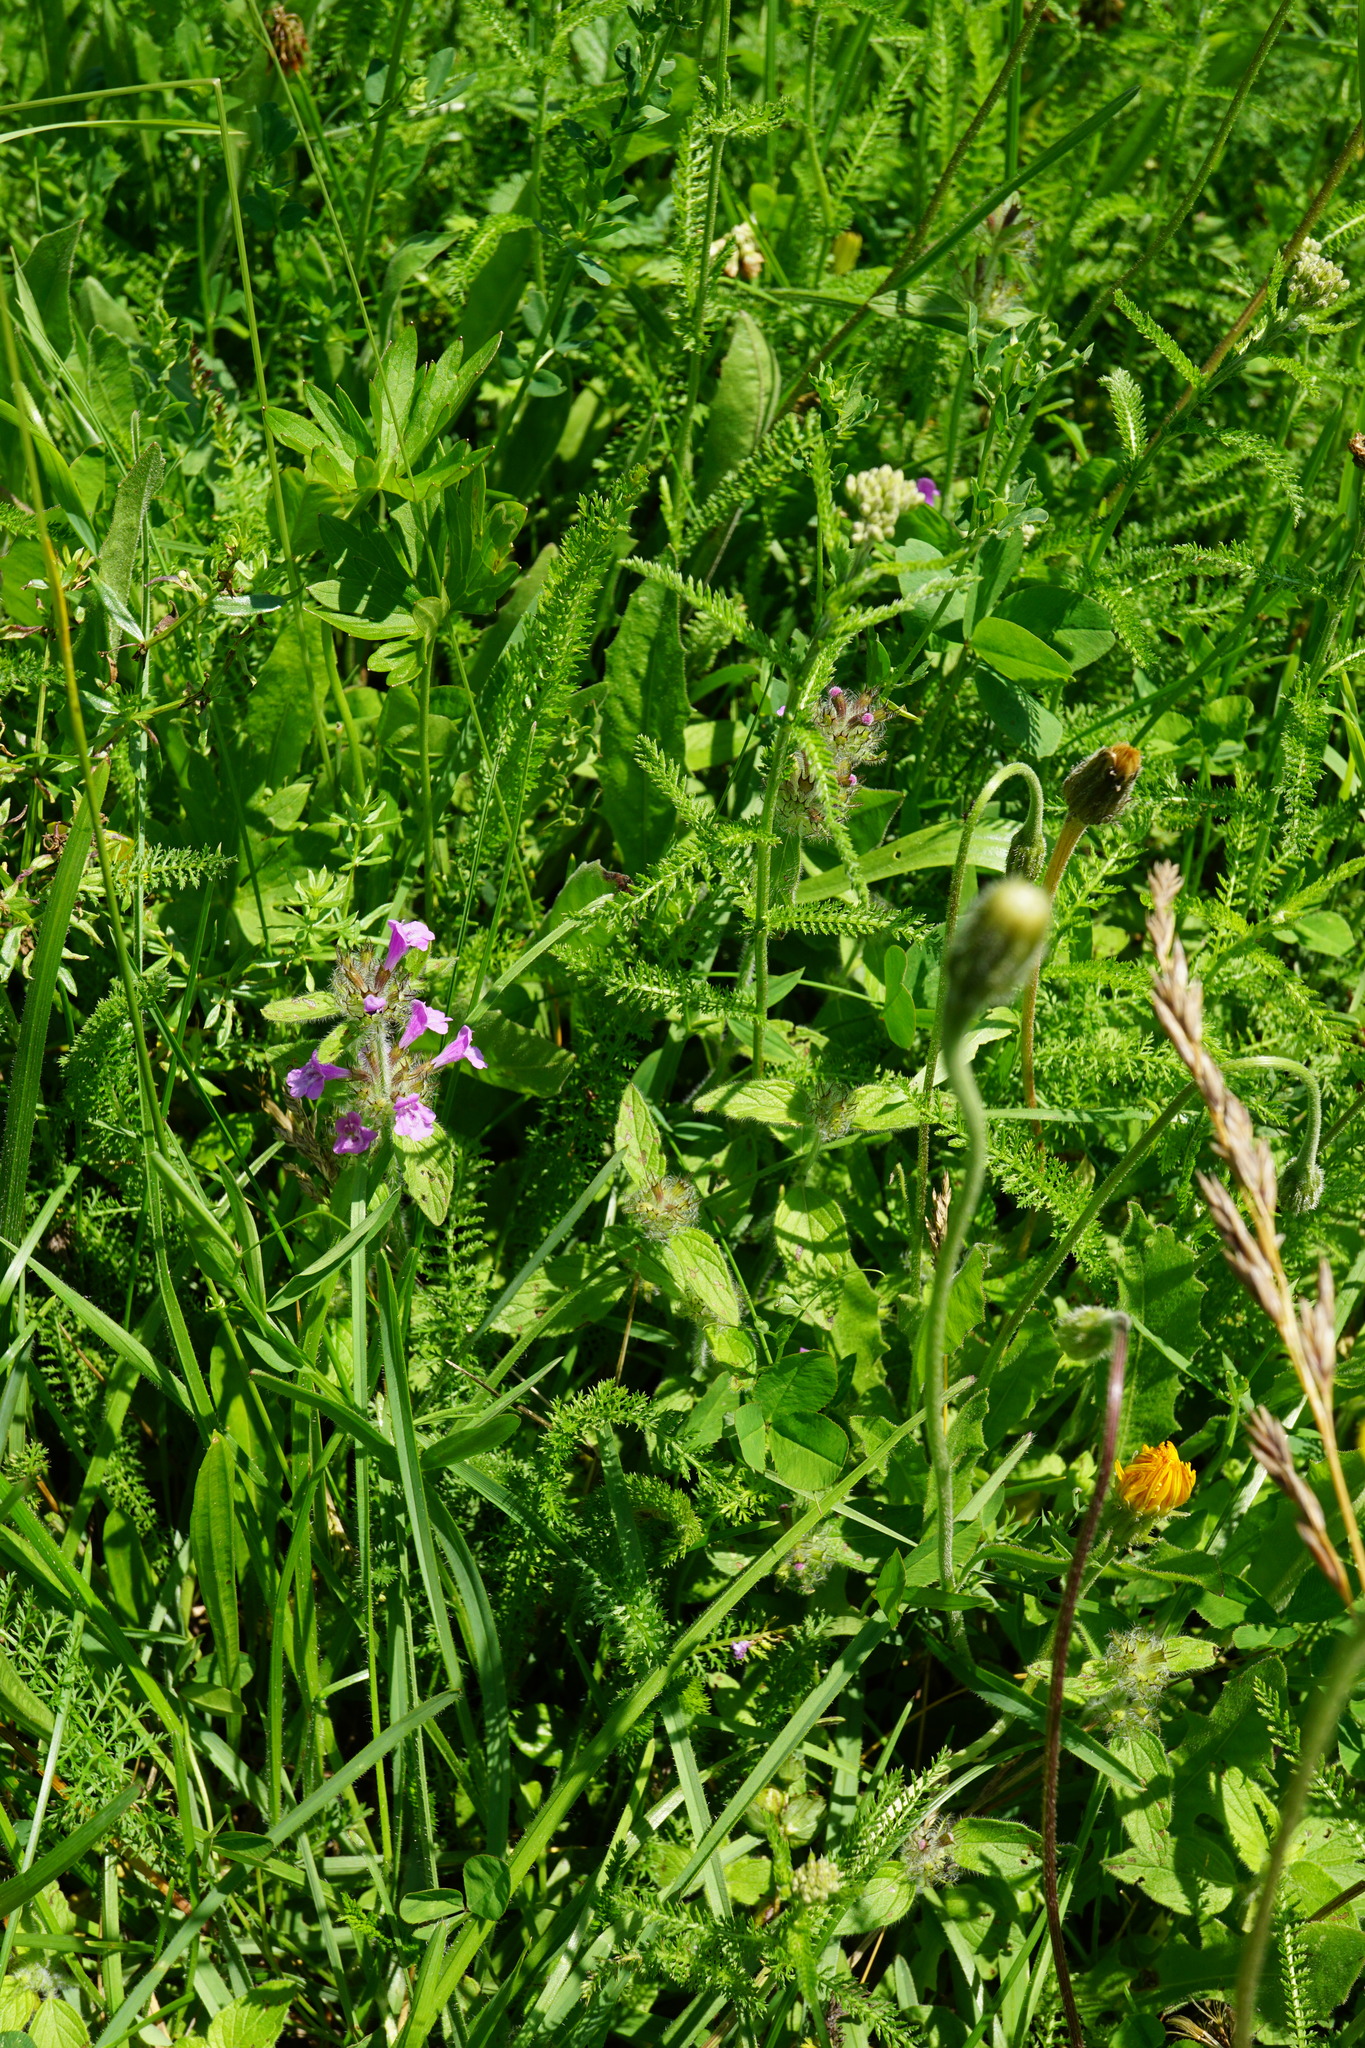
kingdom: Plantae
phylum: Tracheophyta
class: Magnoliopsida
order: Lamiales
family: Lamiaceae
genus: Clinopodium
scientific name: Clinopodium vulgare
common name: Wild basil
